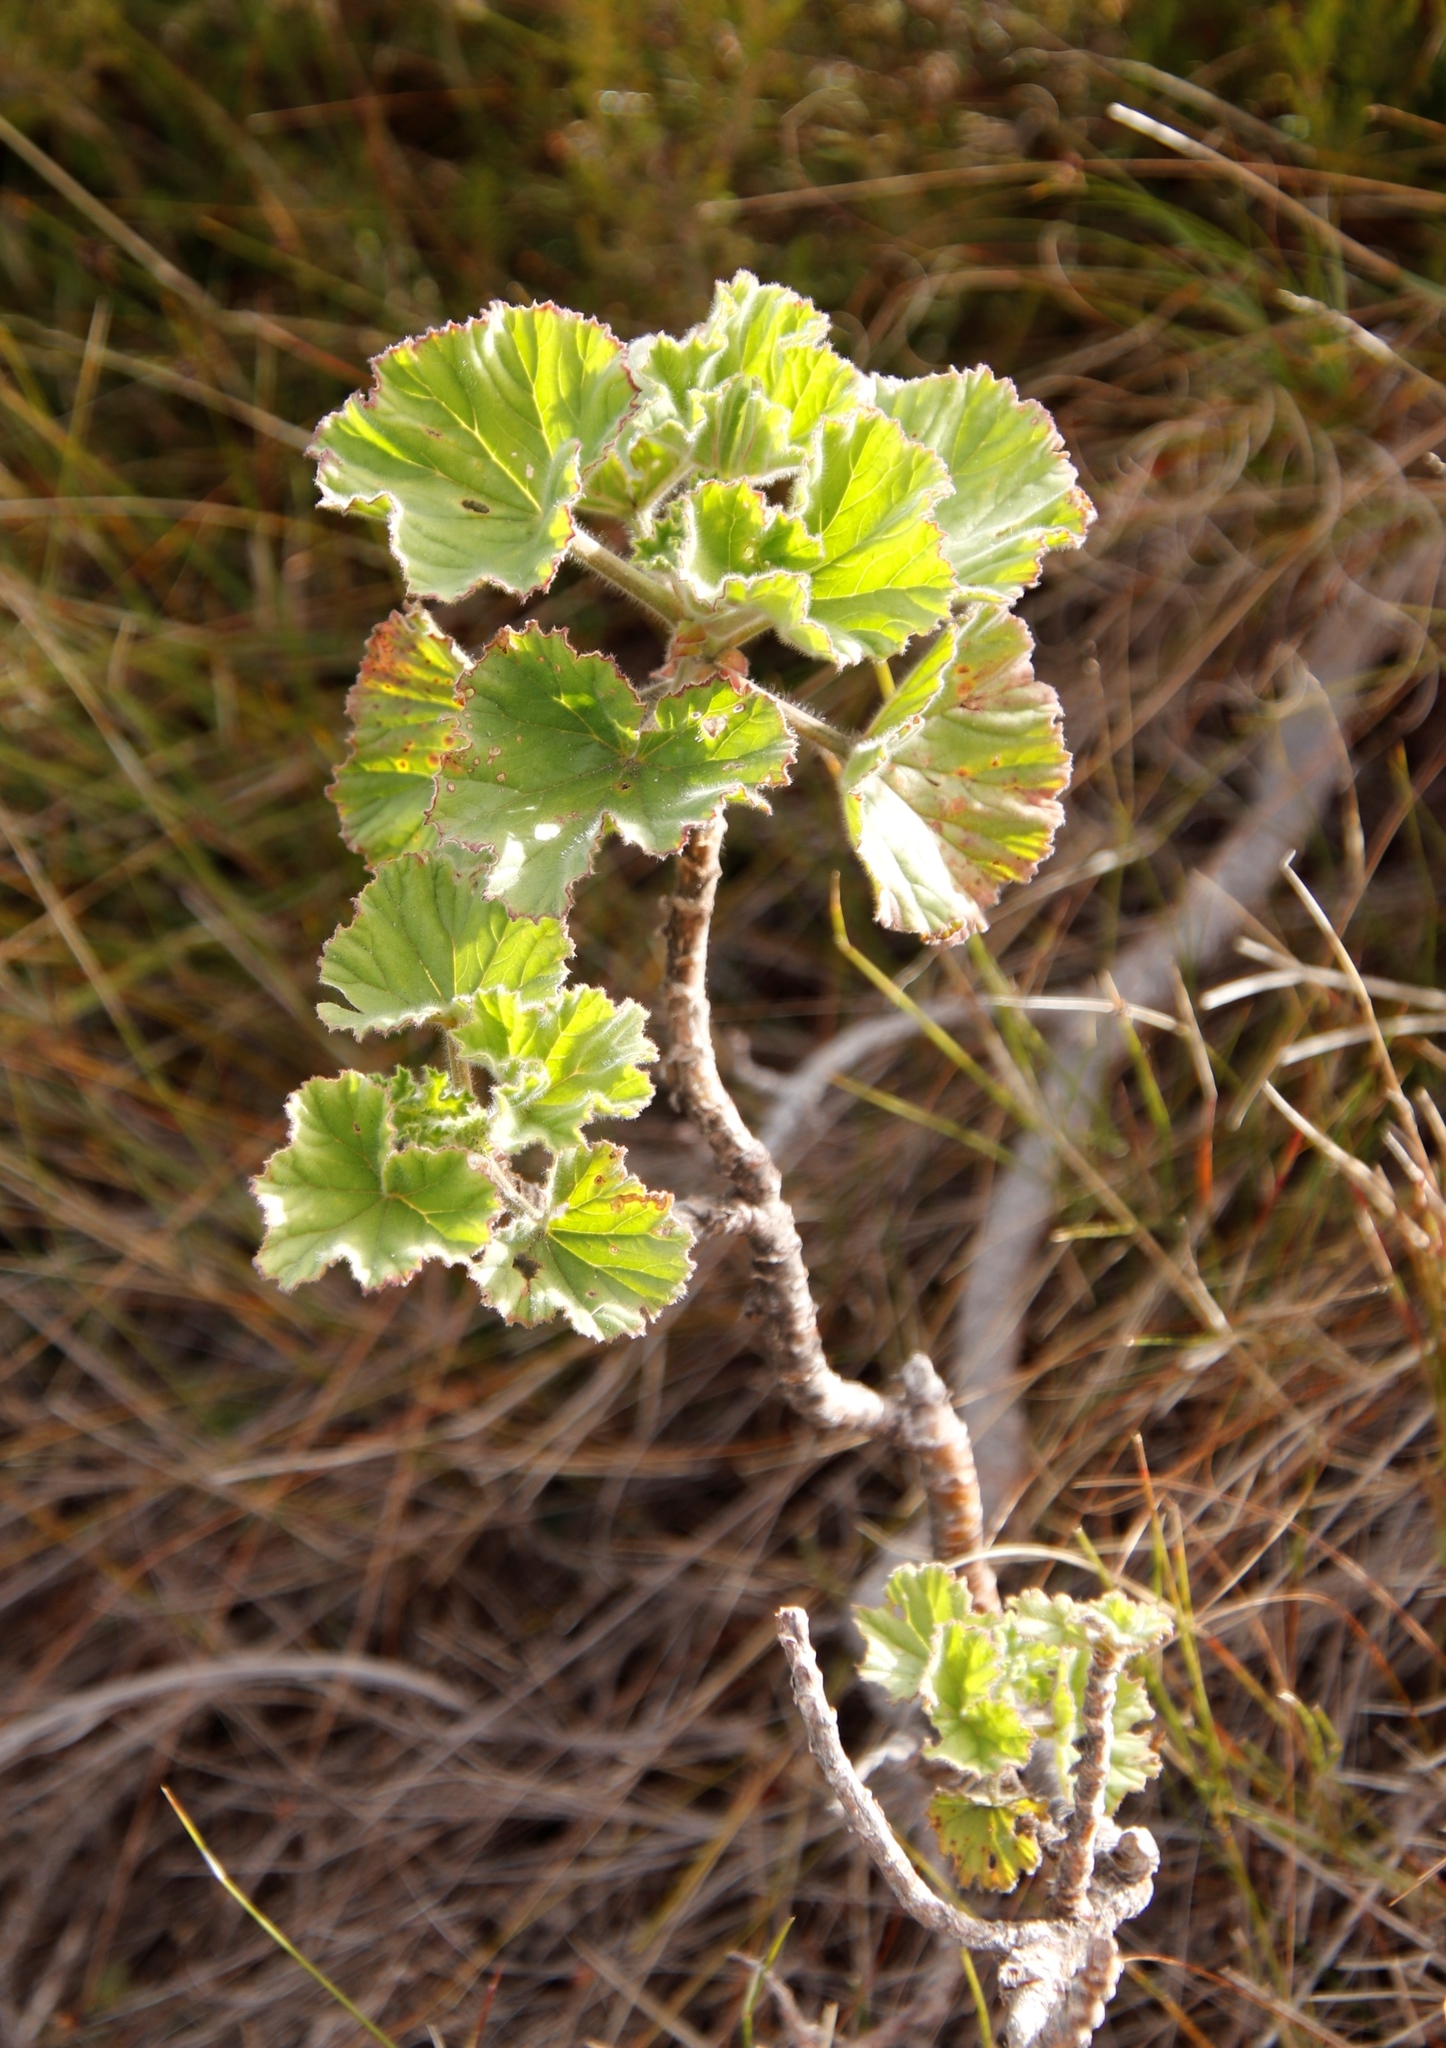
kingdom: Plantae
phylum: Tracheophyta
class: Magnoliopsida
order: Geraniales
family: Geraniaceae
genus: Pelargonium
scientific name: Pelargonium cucullatum
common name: Tree pelargonium
